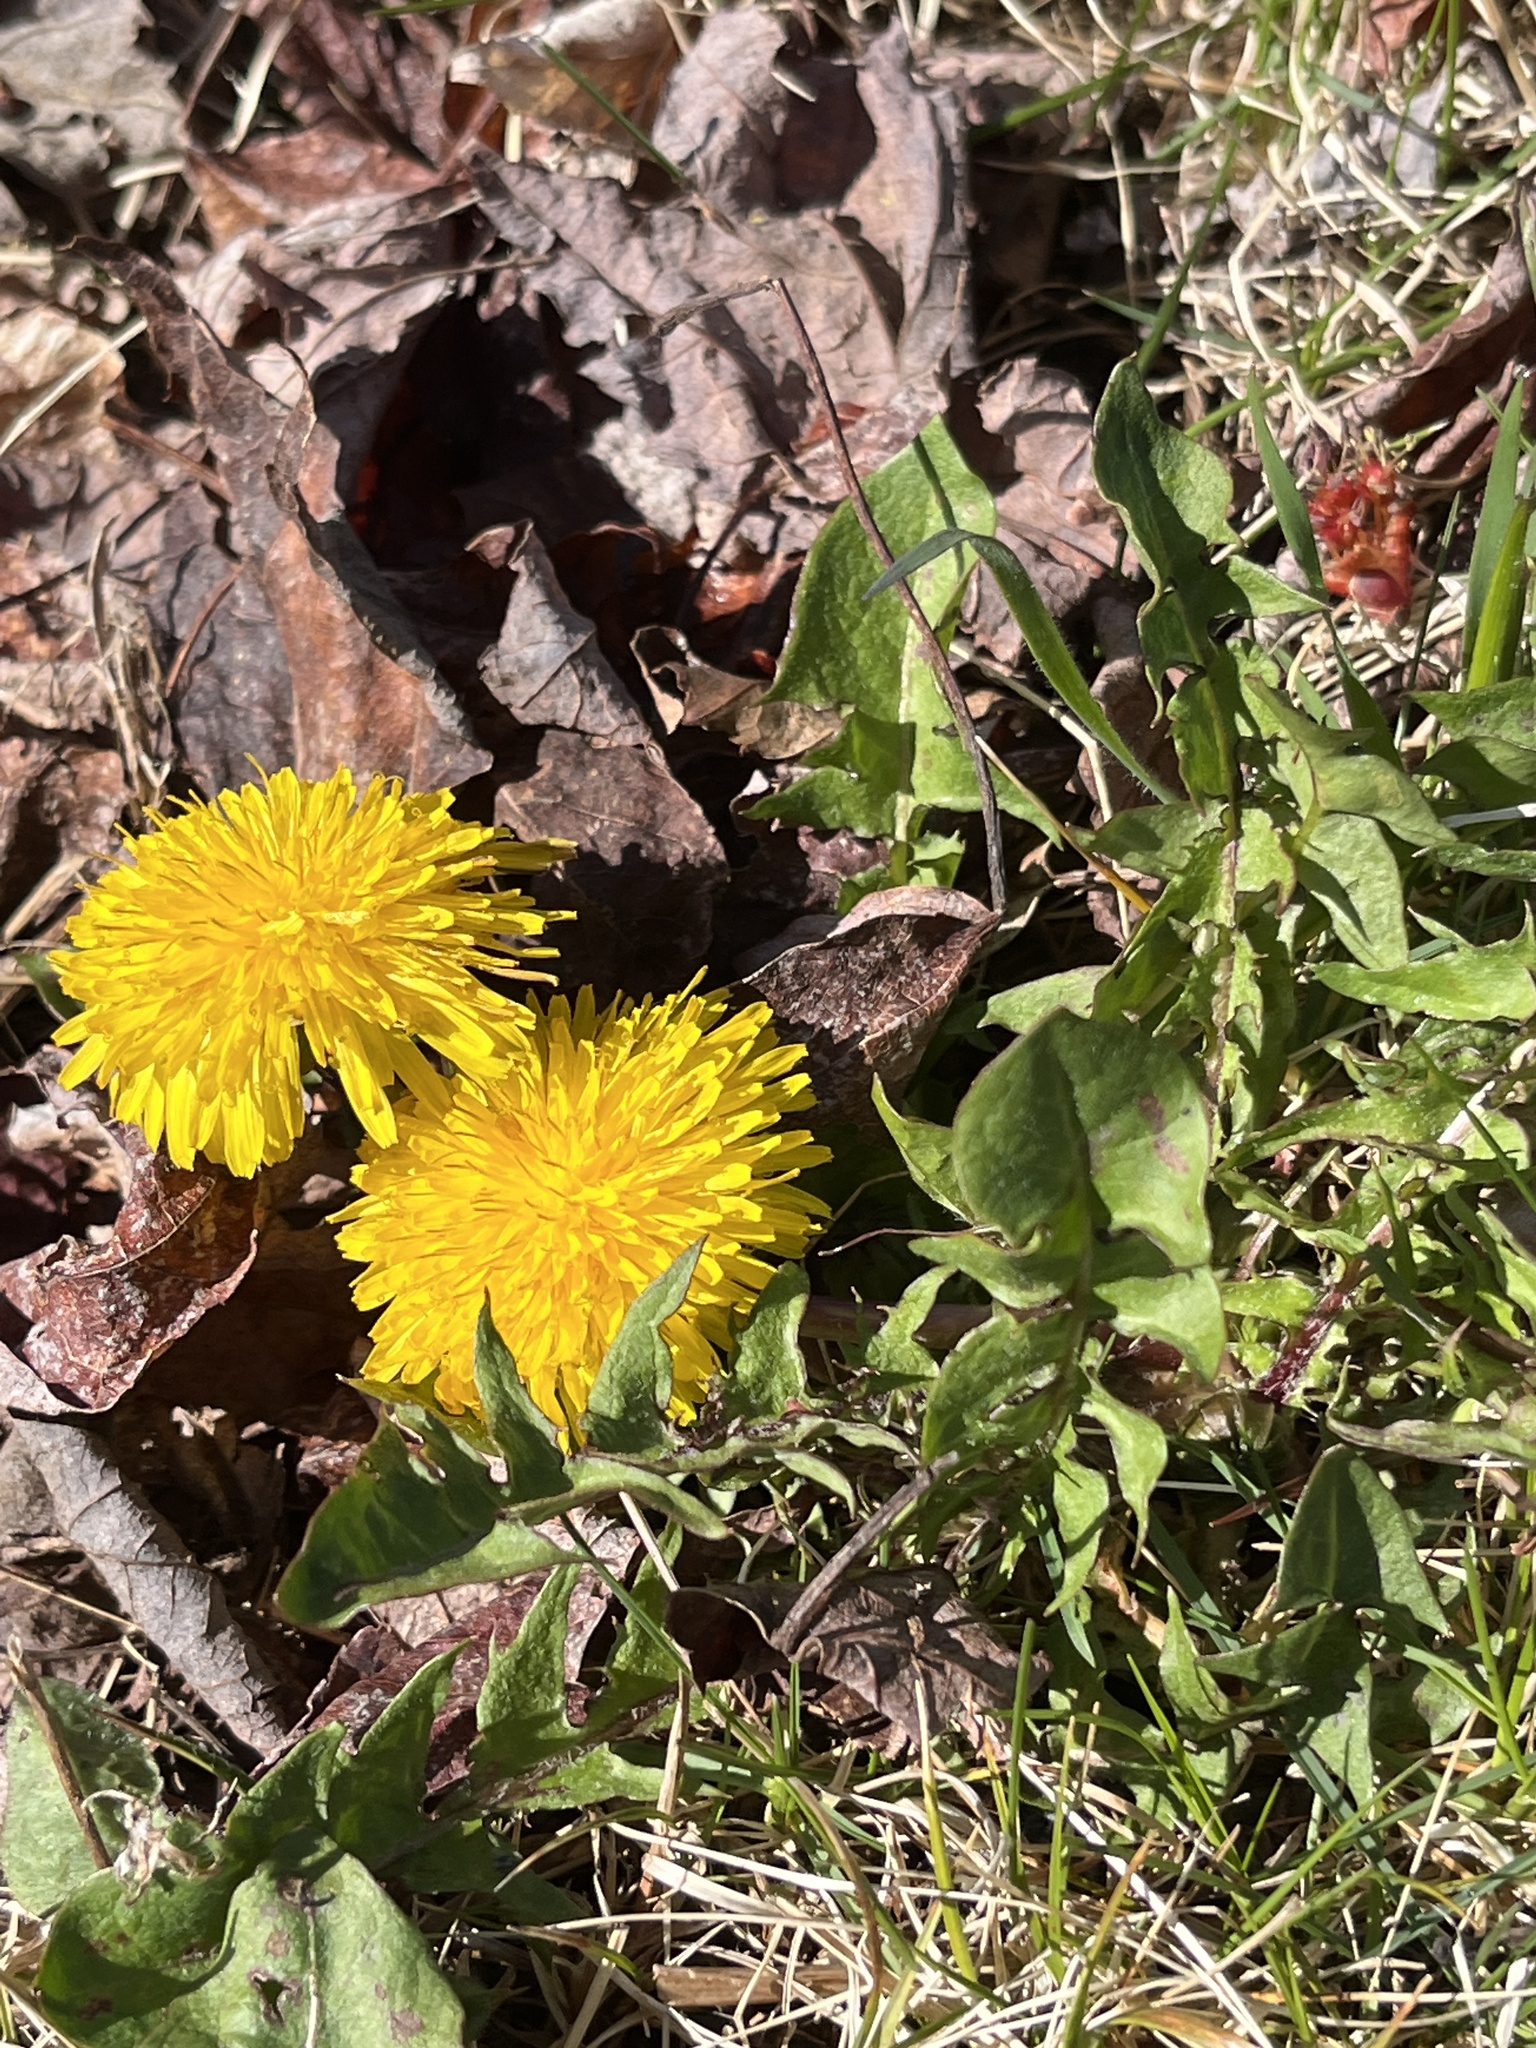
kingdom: Plantae
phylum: Tracheophyta
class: Magnoliopsida
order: Asterales
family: Asteraceae
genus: Taraxacum
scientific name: Taraxacum officinale
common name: Common dandelion
